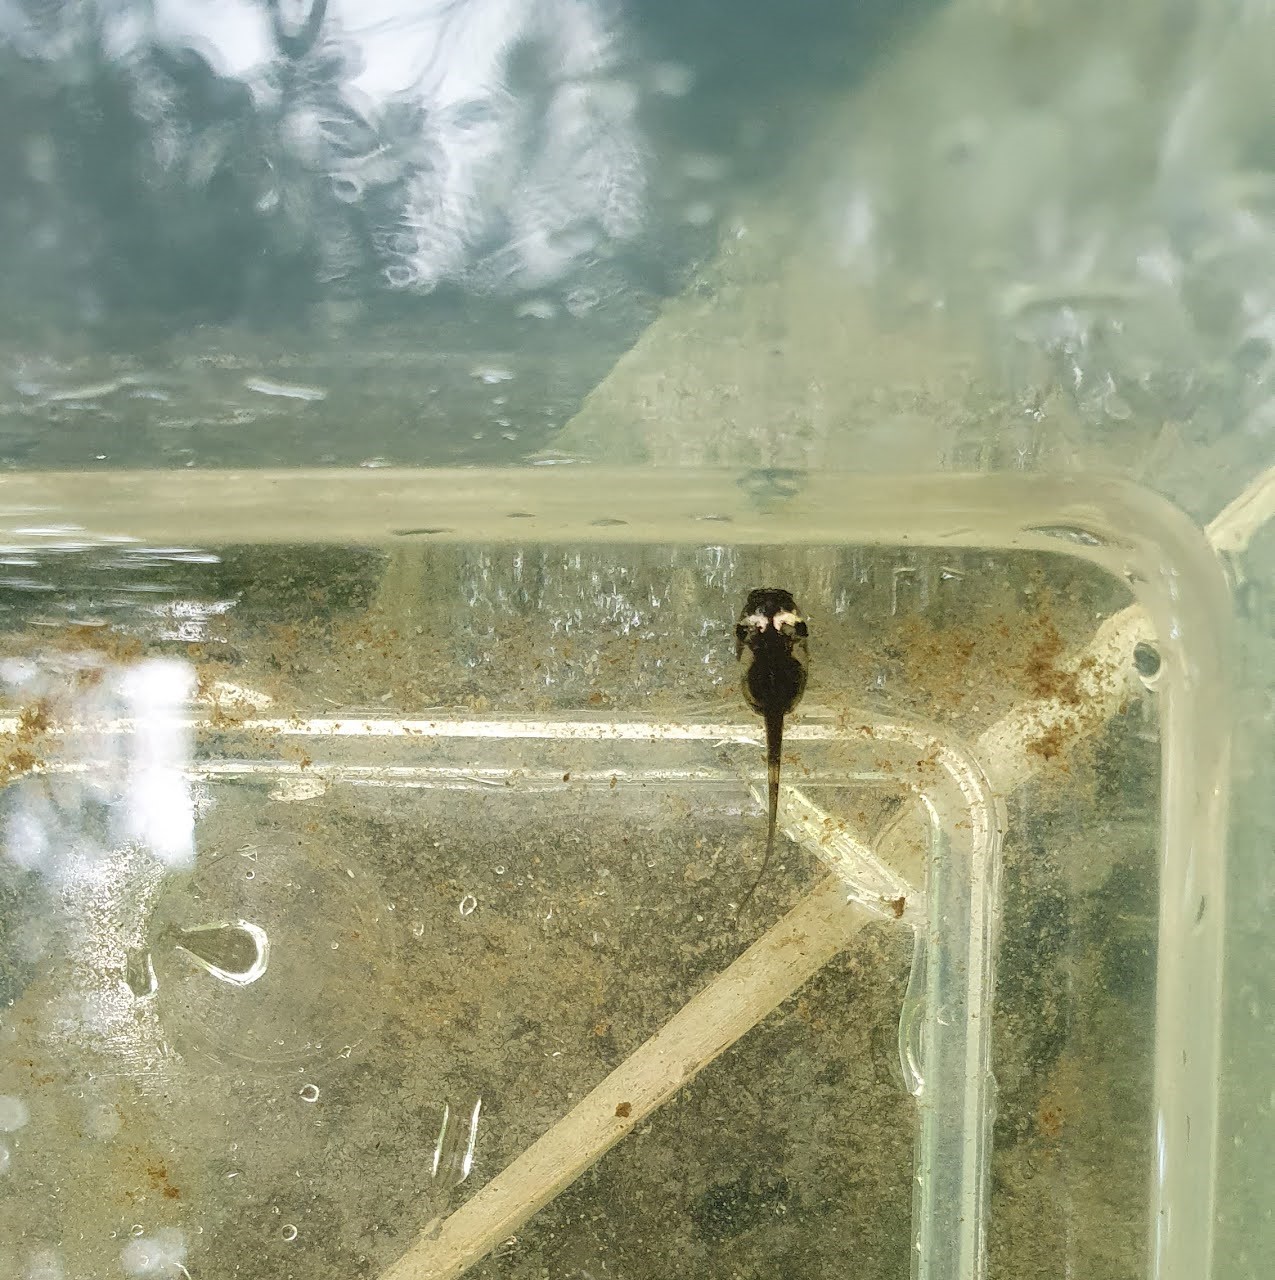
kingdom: Animalia
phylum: Chordata
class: Amphibia
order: Anura
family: Microhylidae
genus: Microhyla
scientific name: Microhyla heymonsi
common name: Taiwan rice frog,dark sided chorus frog
